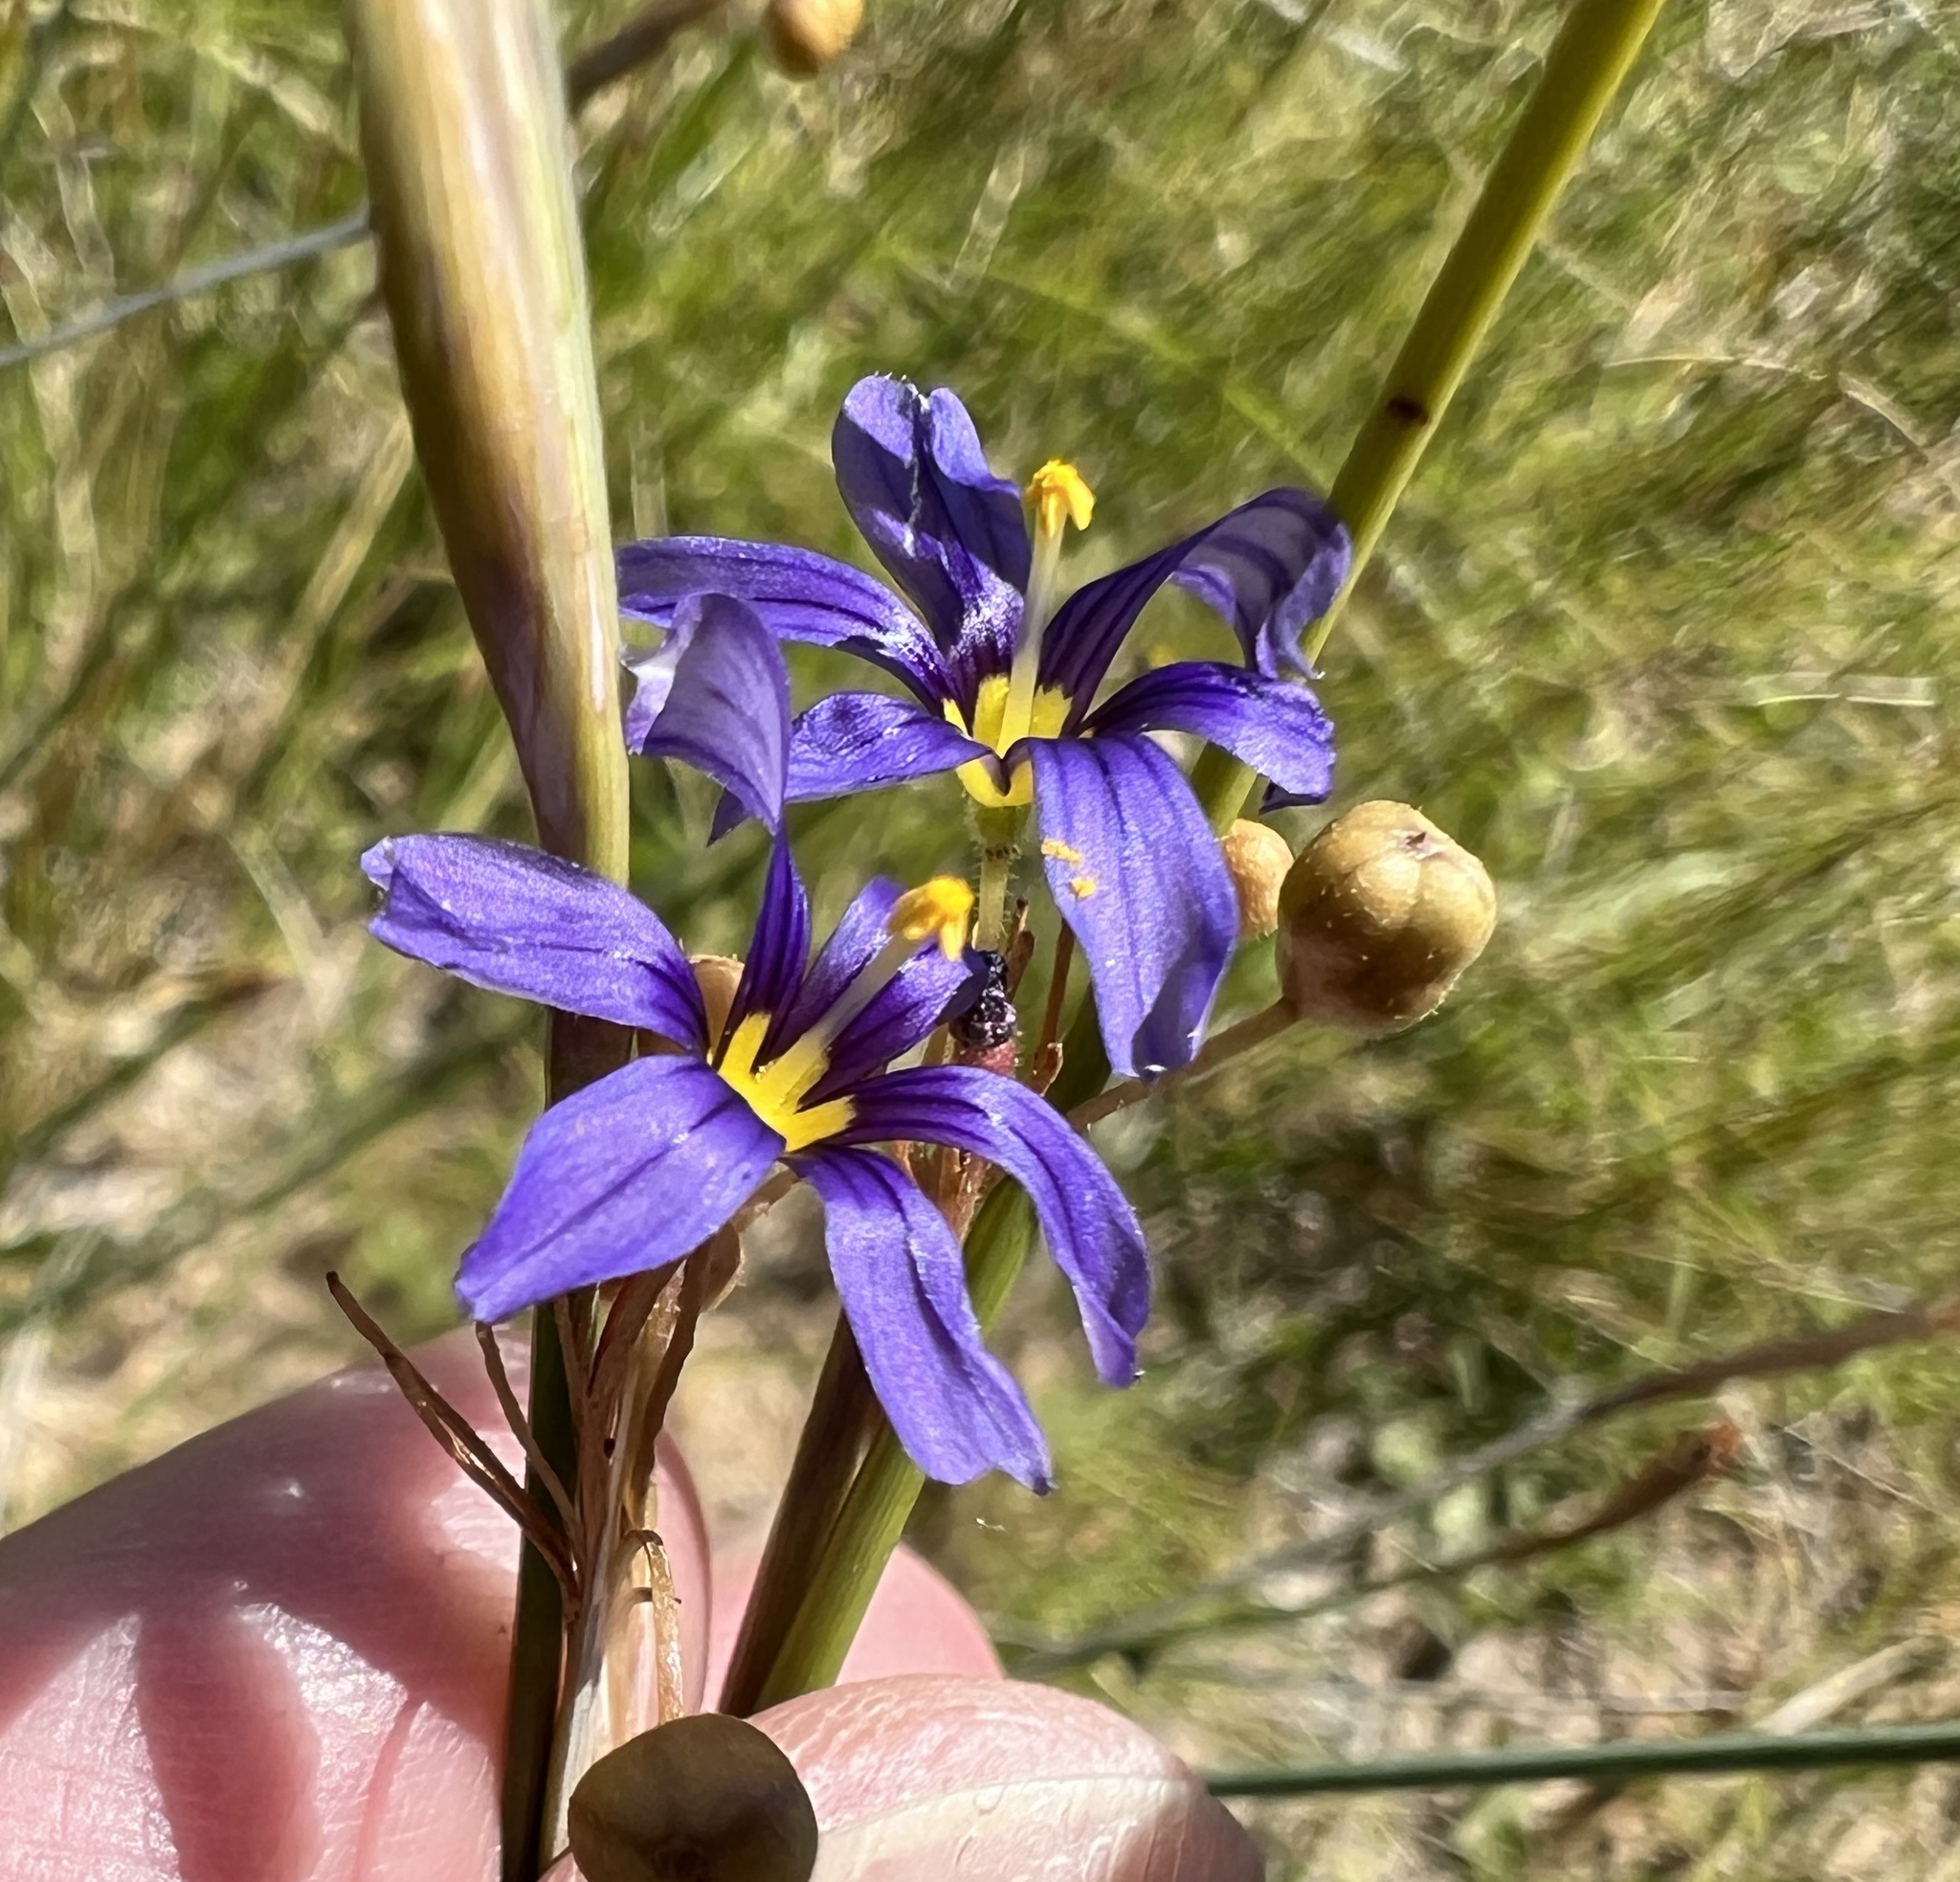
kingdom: Plantae
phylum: Tracheophyta
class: Liliopsida
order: Asparagales
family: Iridaceae
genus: Sisyrinchium
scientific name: Sisyrinchium halophilum
